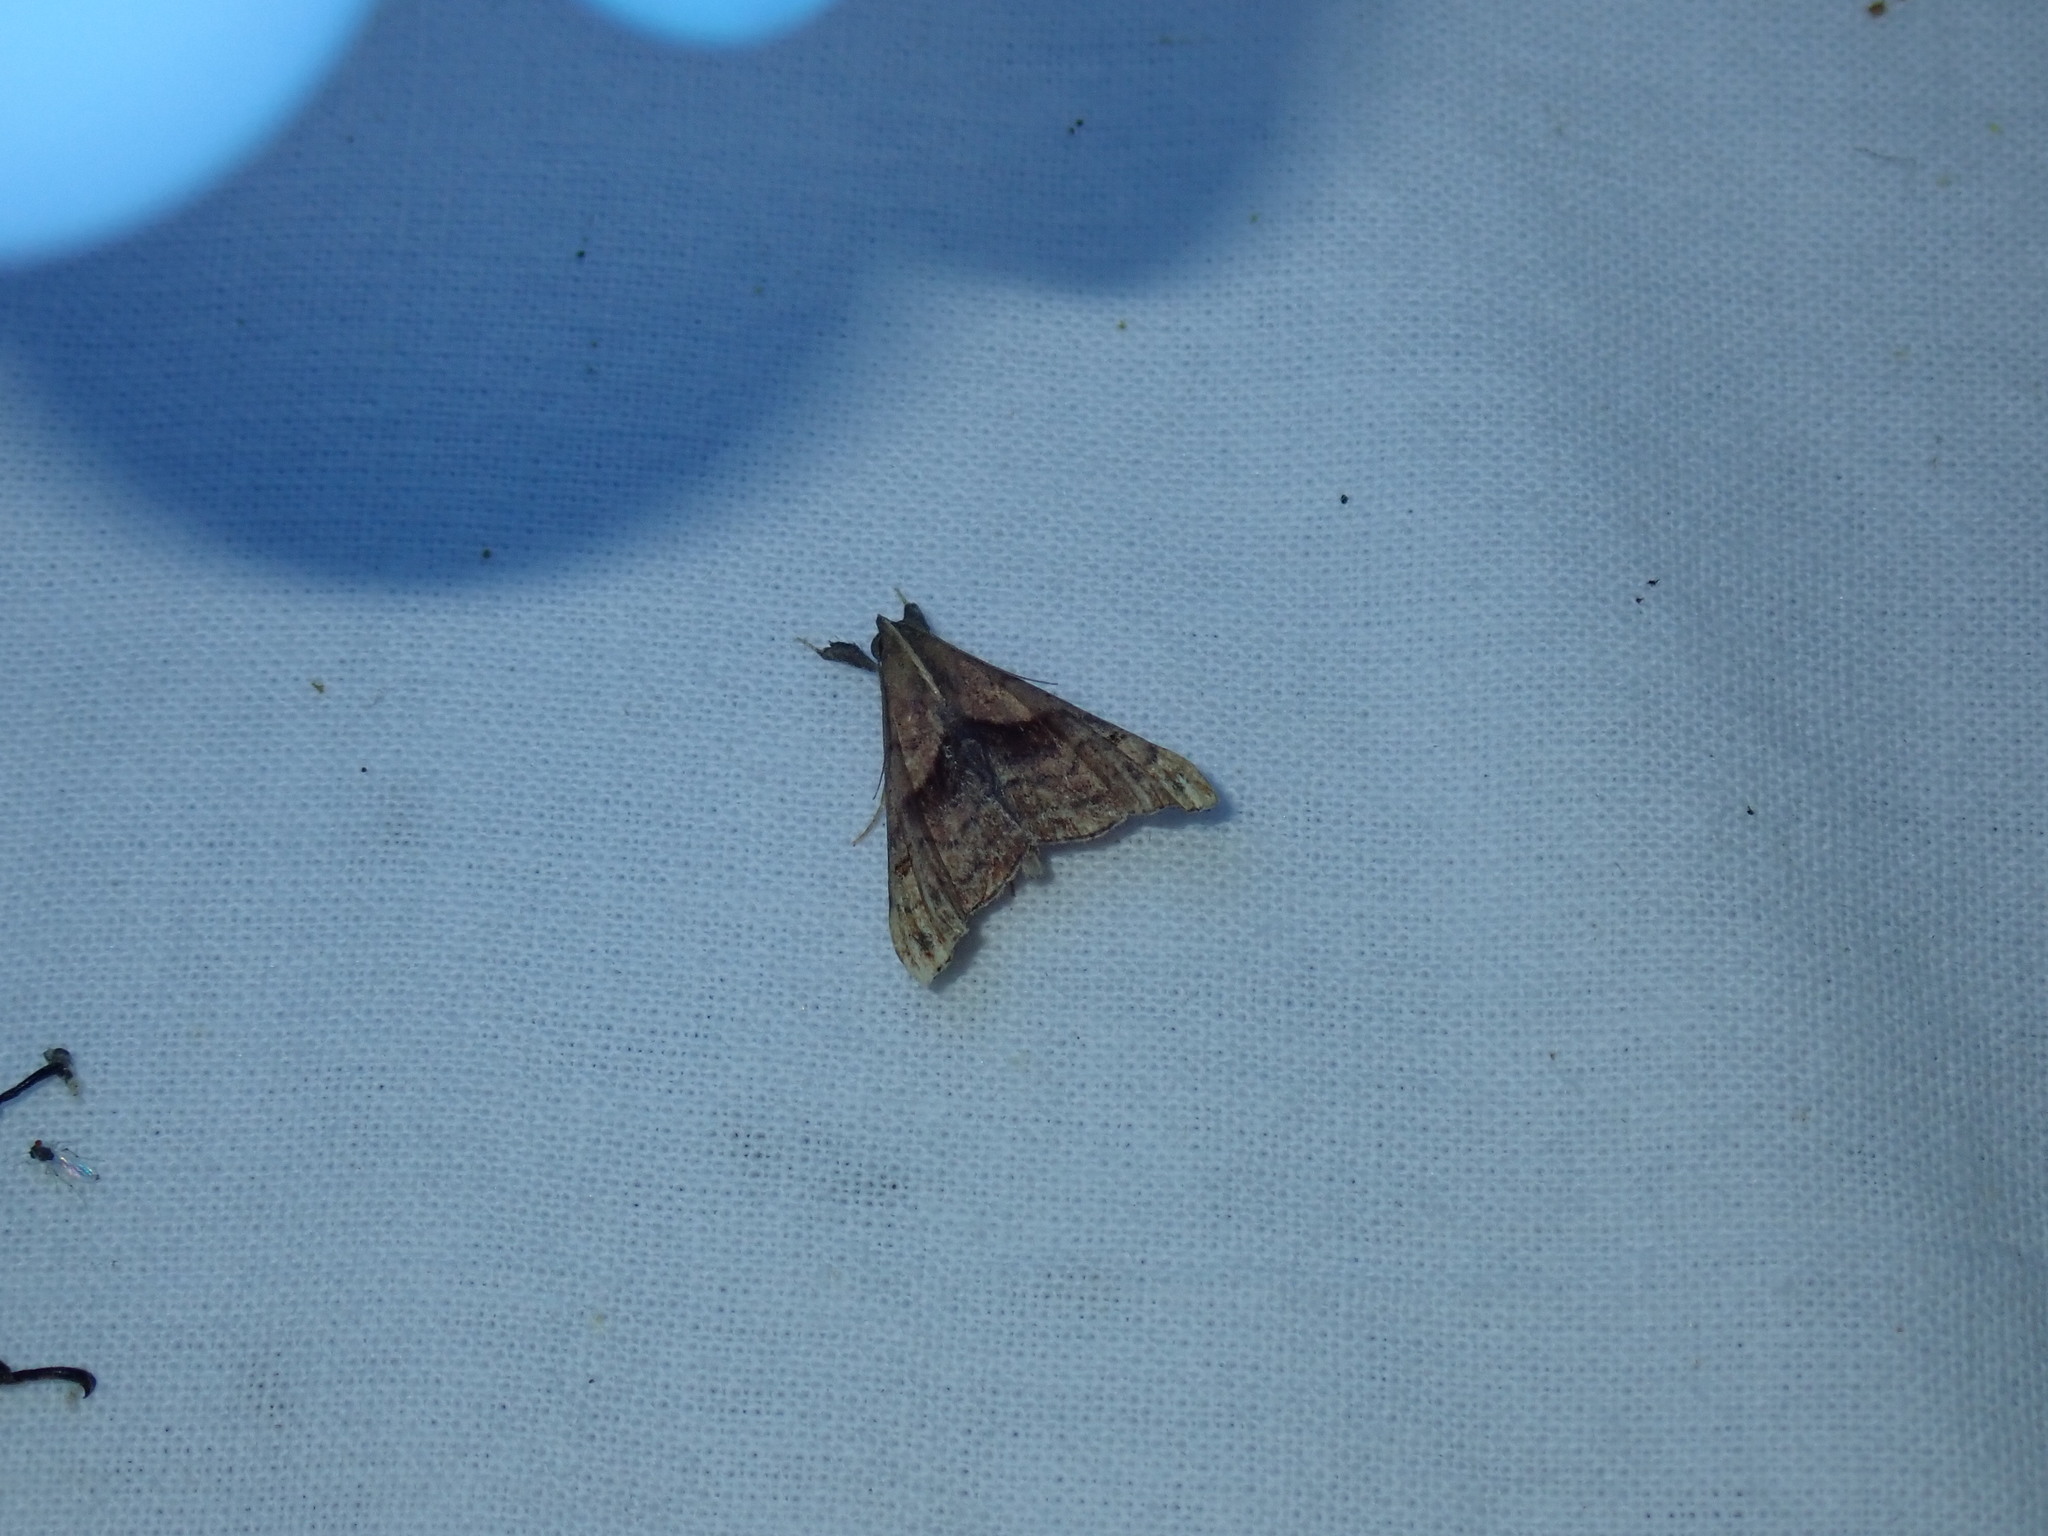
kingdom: Animalia
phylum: Arthropoda
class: Insecta
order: Lepidoptera
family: Erebidae
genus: Palthis
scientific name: Palthis angulalis
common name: Dark-spotted palthis moth
